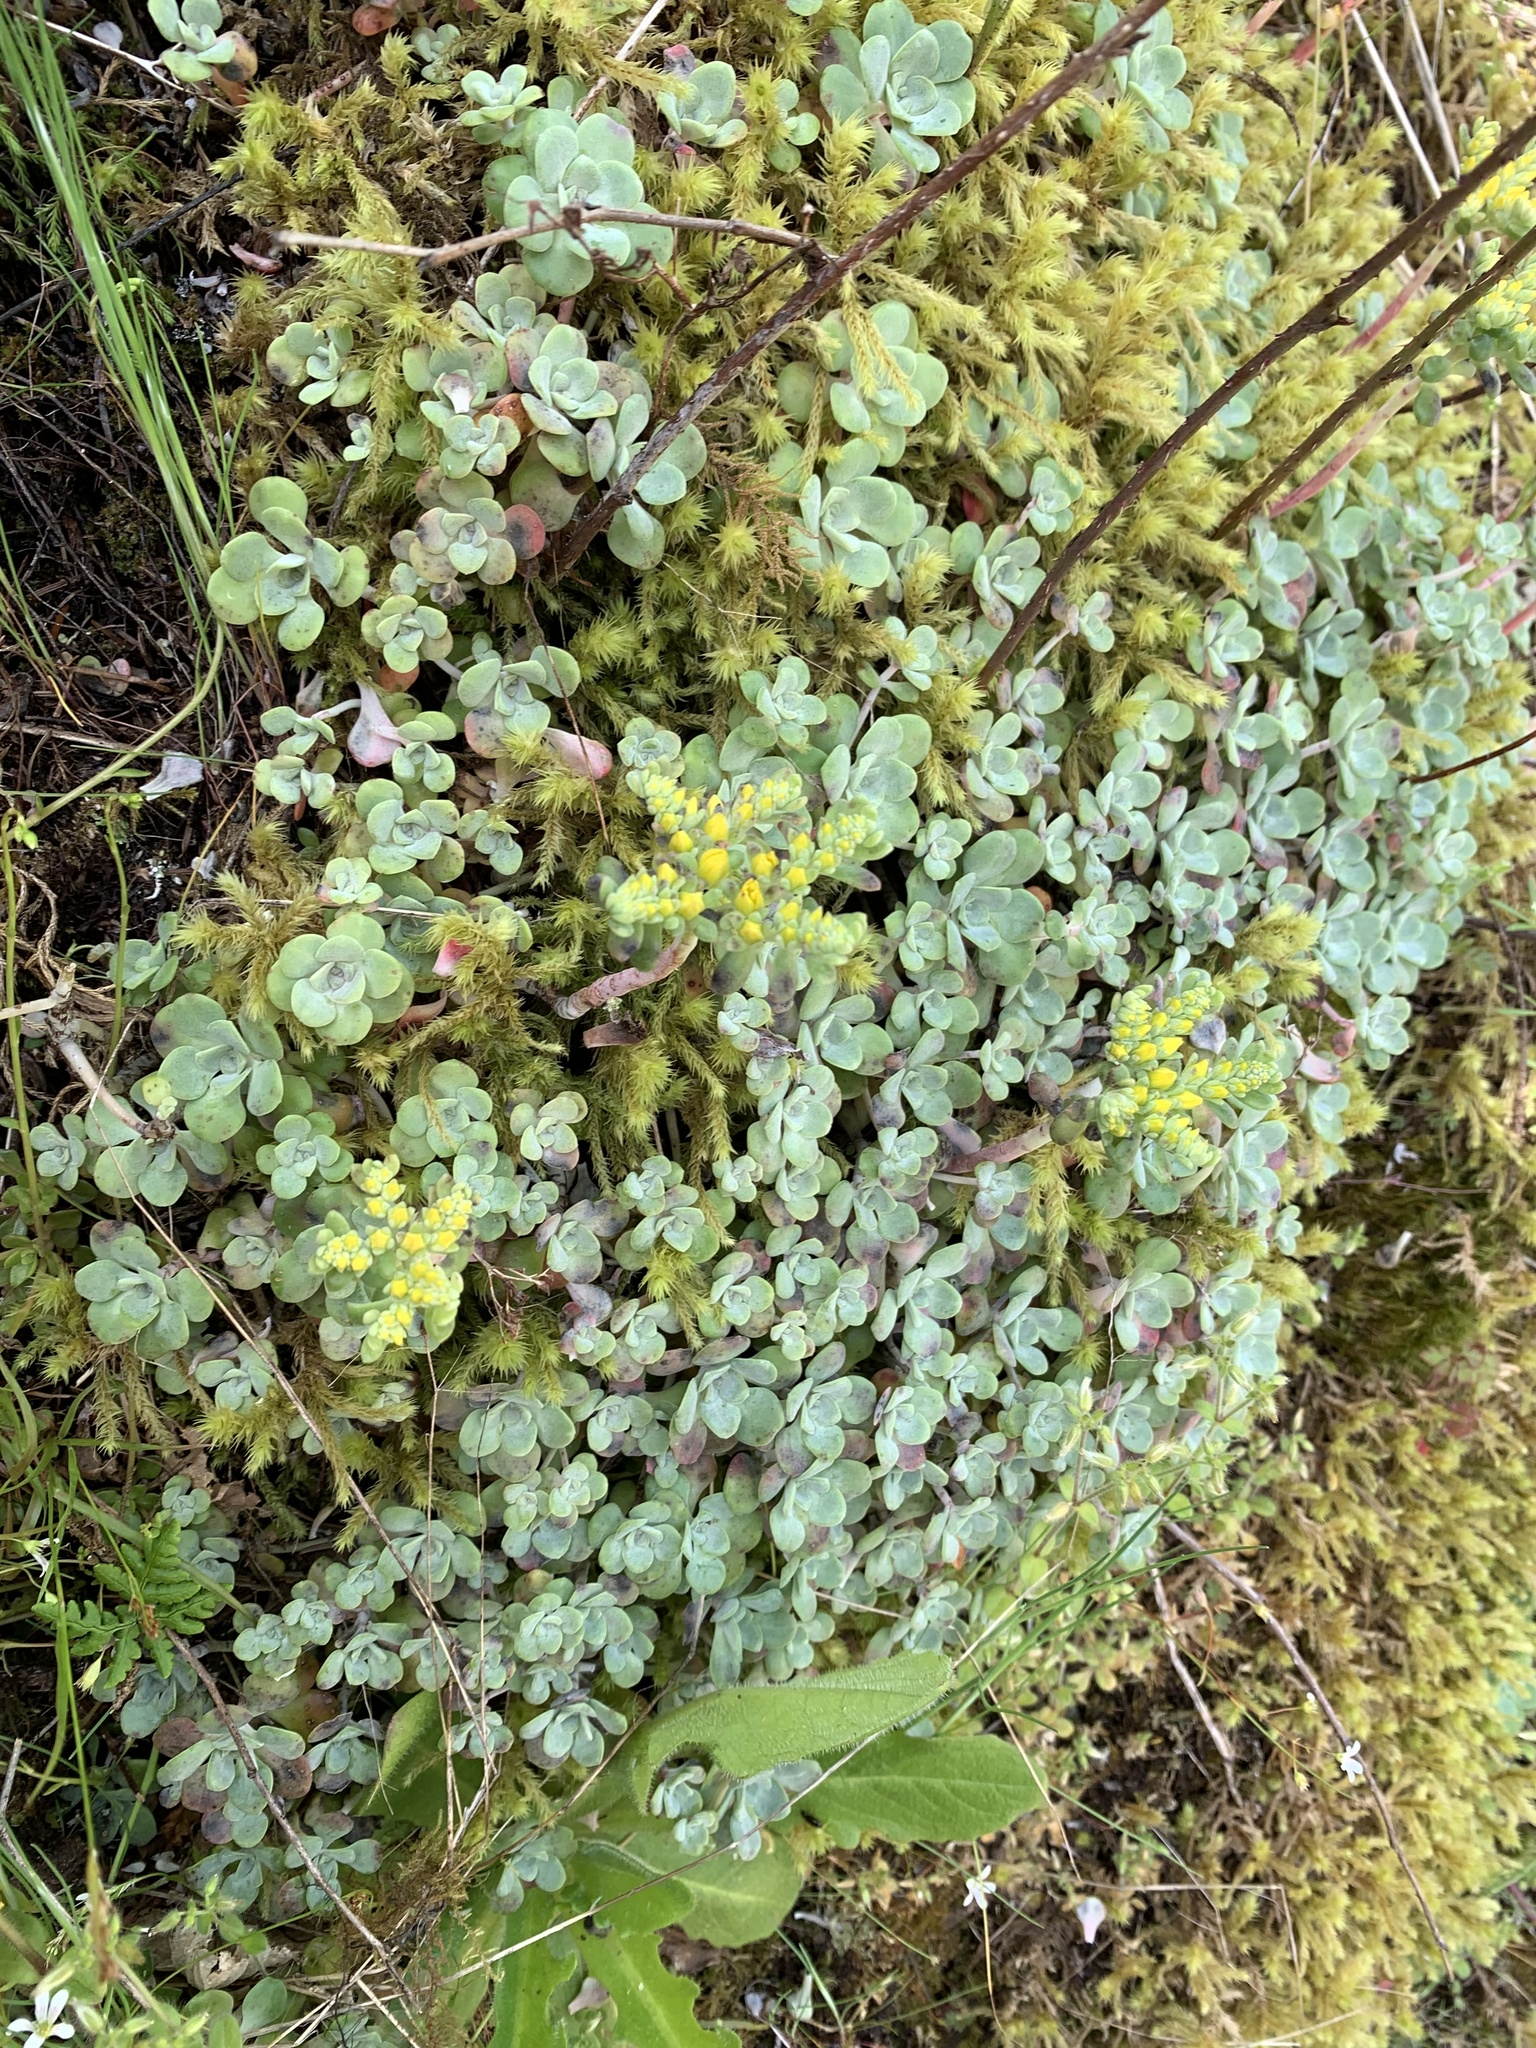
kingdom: Plantae
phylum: Tracheophyta
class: Magnoliopsida
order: Saxifragales
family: Crassulaceae
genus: Sedum
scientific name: Sedum spathulifolium
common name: Colorado stonecrop
